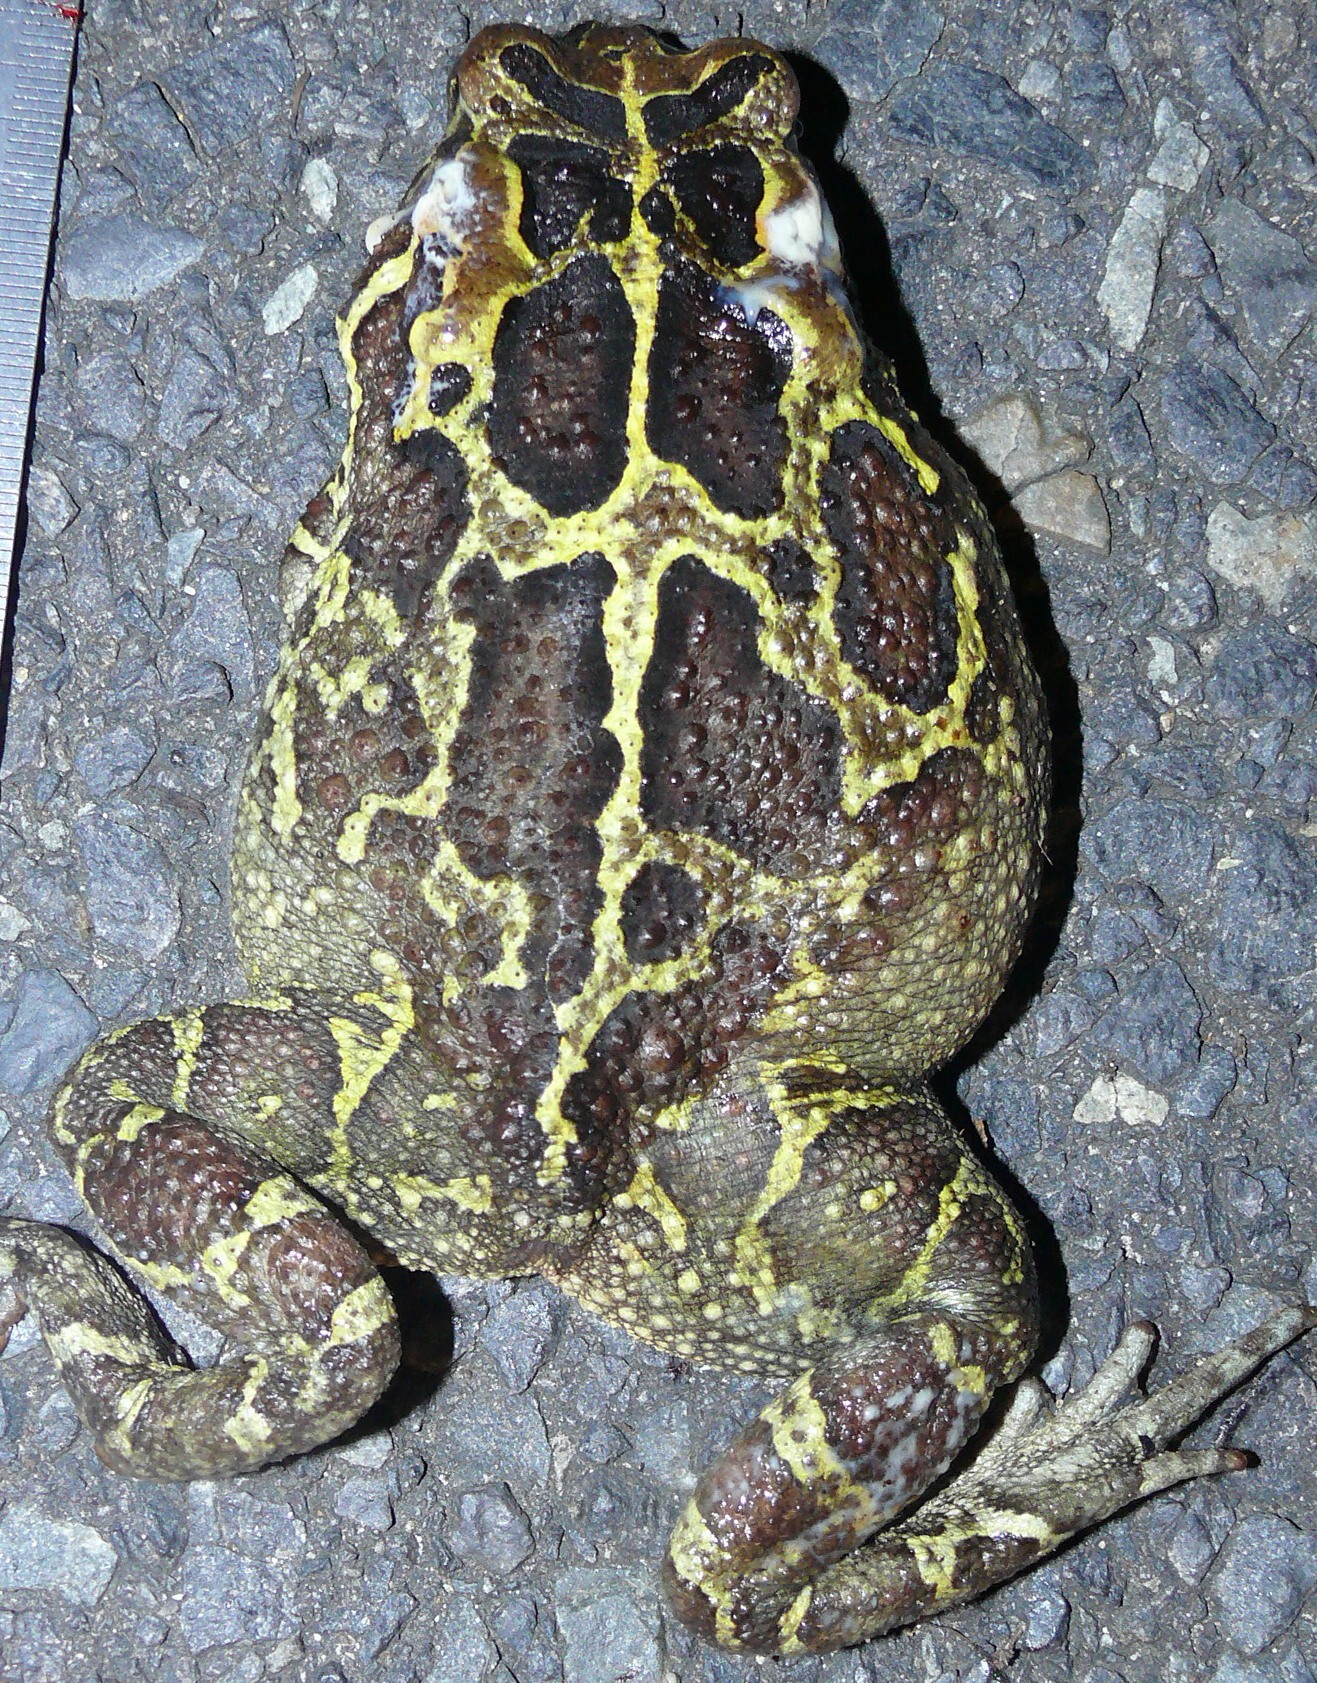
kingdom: Animalia
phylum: Chordata
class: Amphibia
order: Anura
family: Bufonidae
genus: Sclerophrys
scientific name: Sclerophrys pantherina
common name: Panther toad
